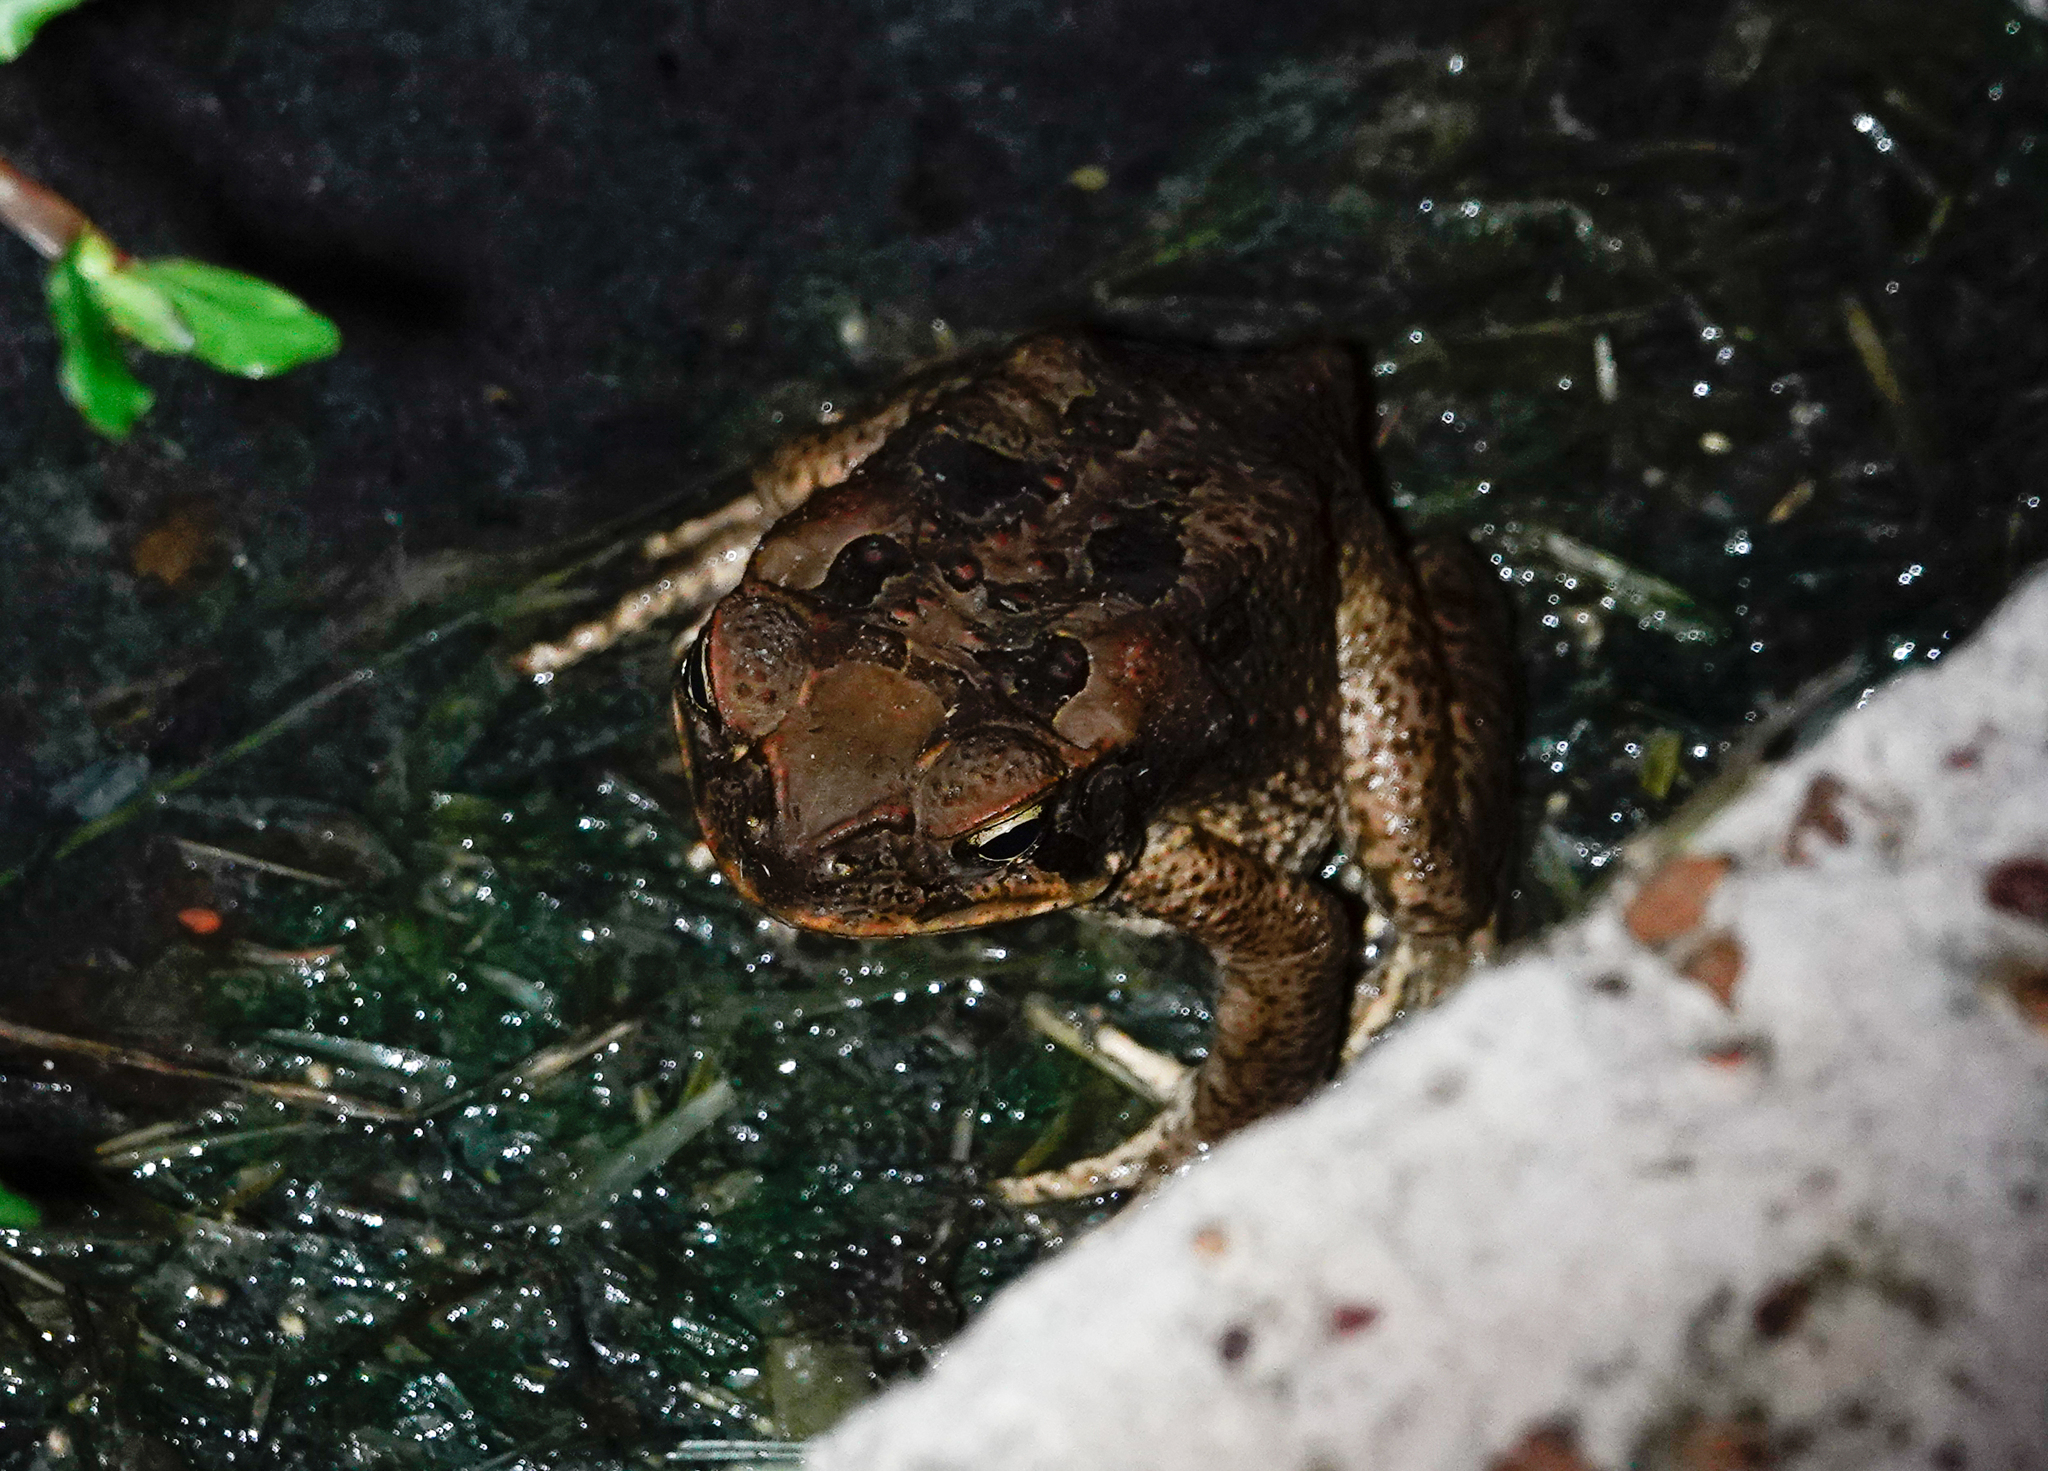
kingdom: Animalia
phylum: Chordata
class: Amphibia
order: Anura
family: Bufonidae
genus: Rhinella
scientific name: Rhinella marina
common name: Cane toad
